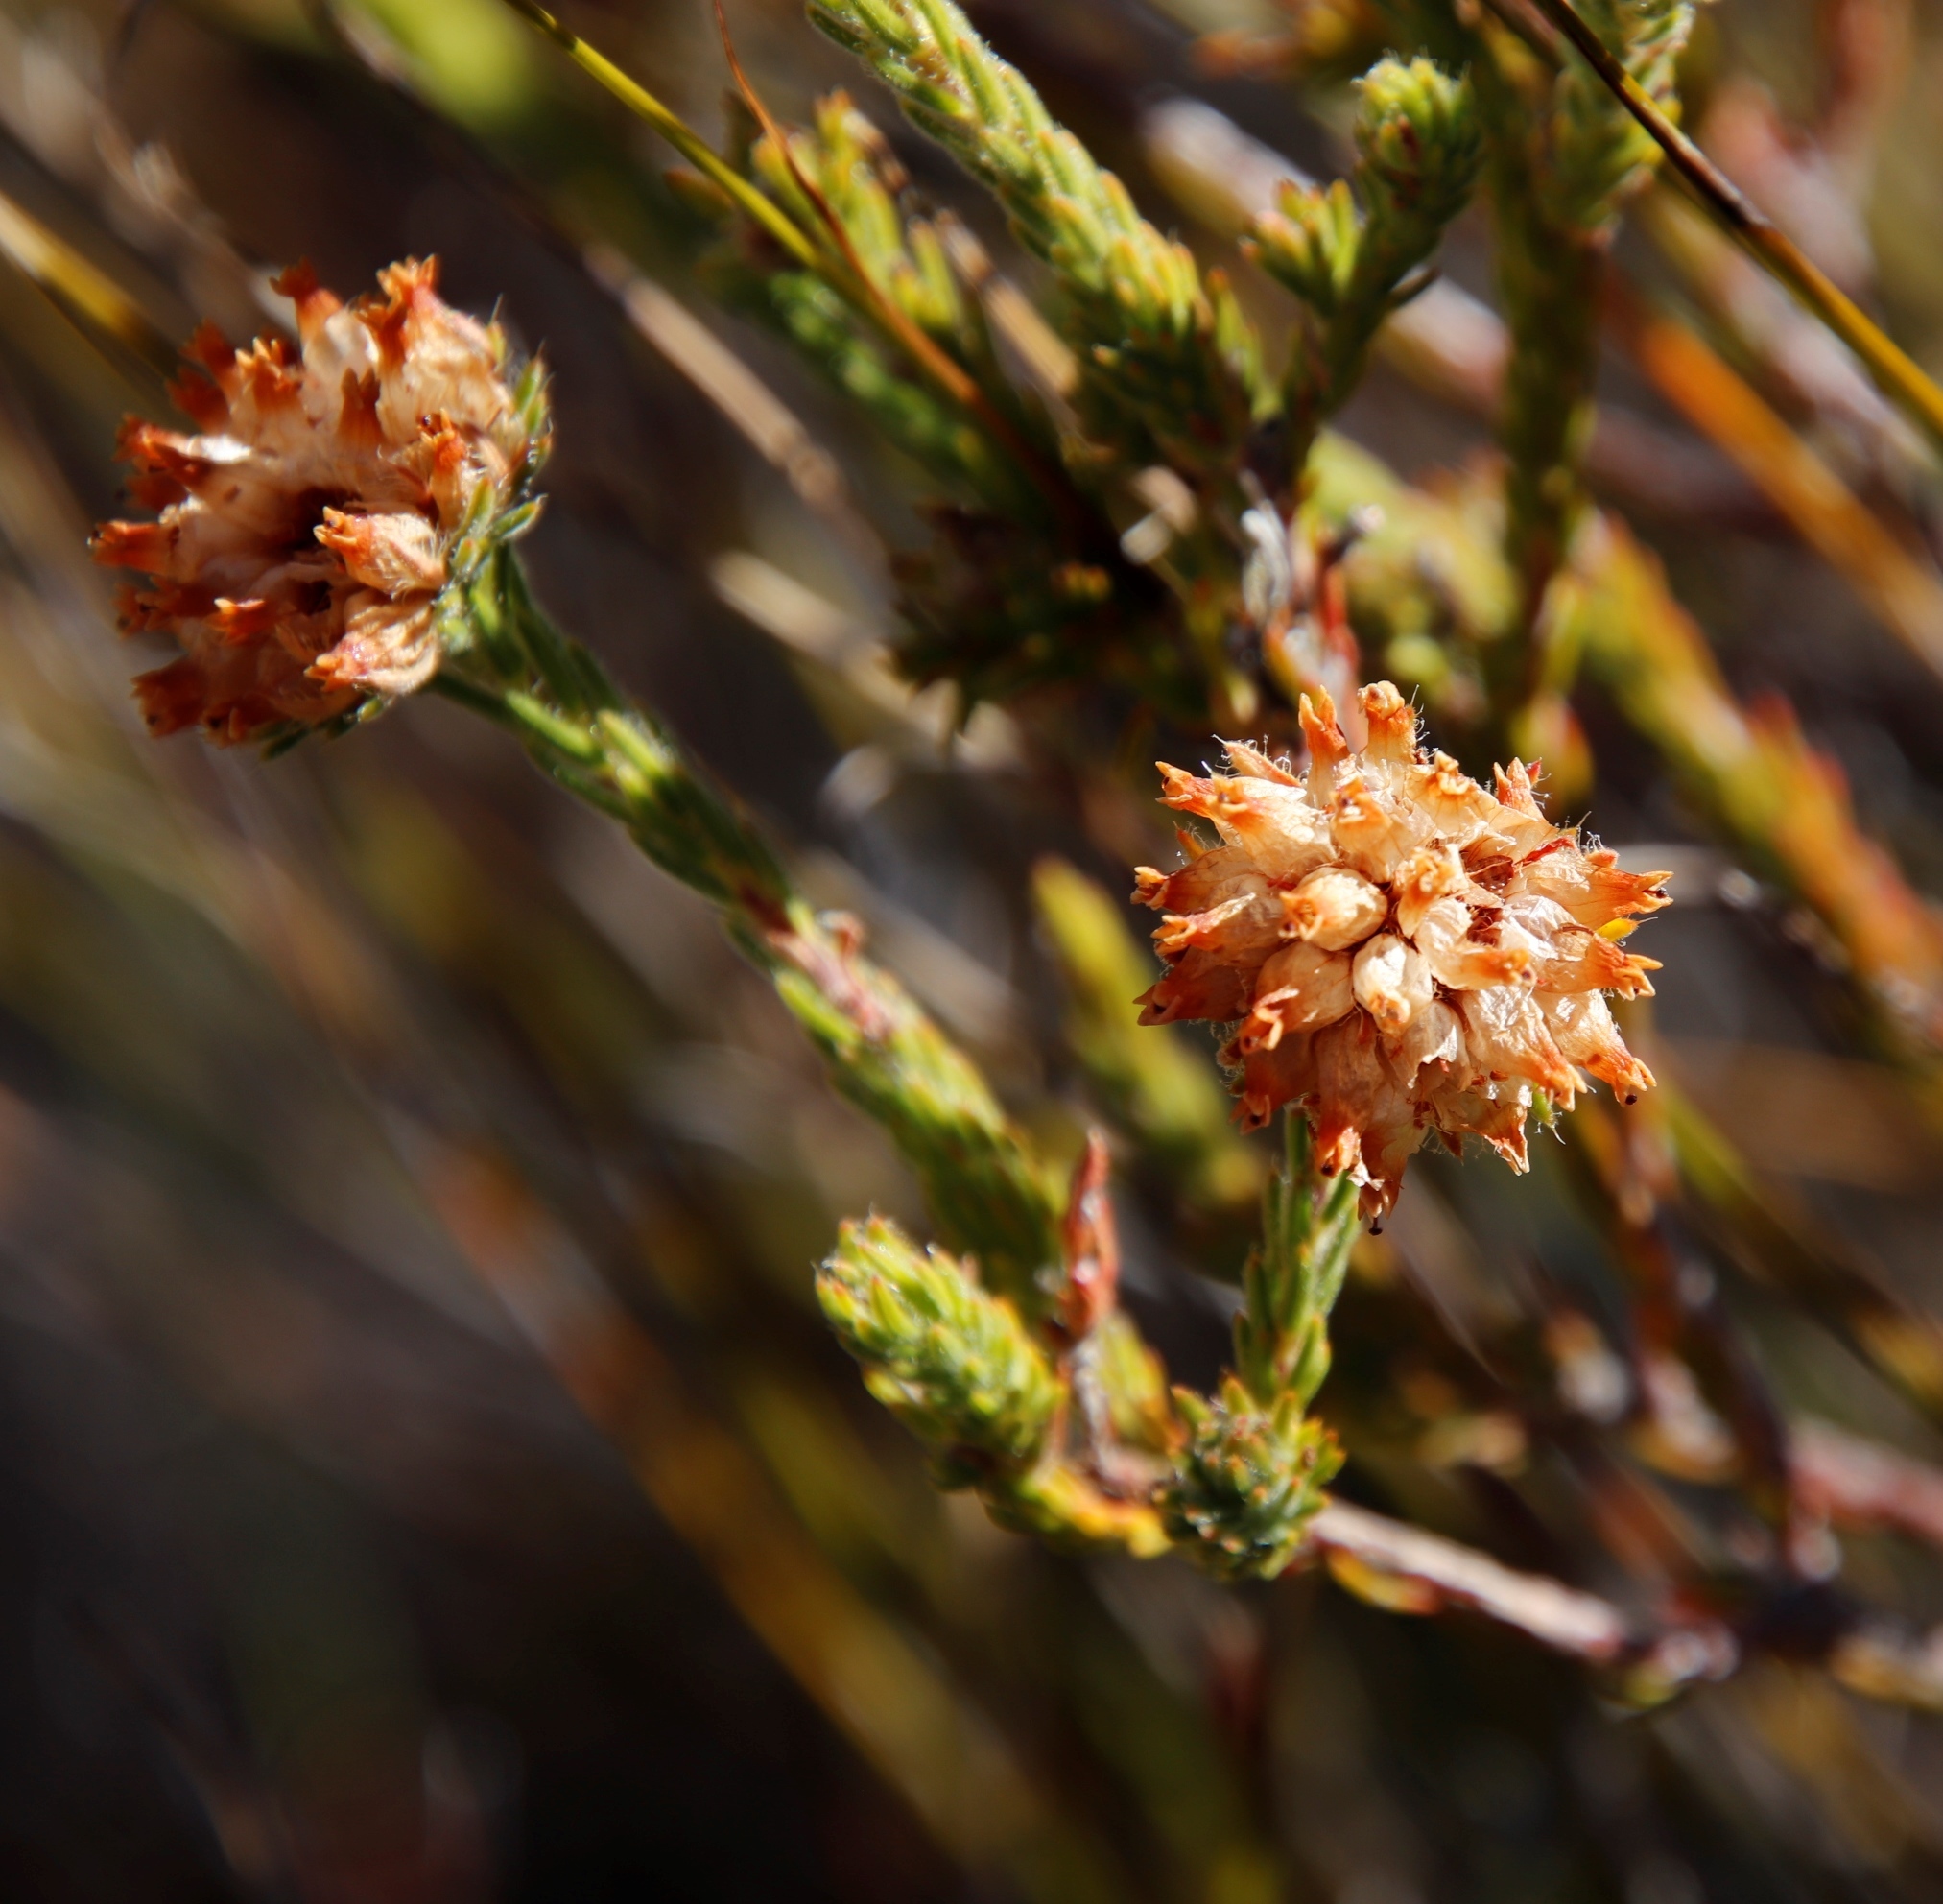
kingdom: Plantae
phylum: Tracheophyta
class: Magnoliopsida
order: Ericales
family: Ericaceae
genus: Erica
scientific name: Erica maderi
